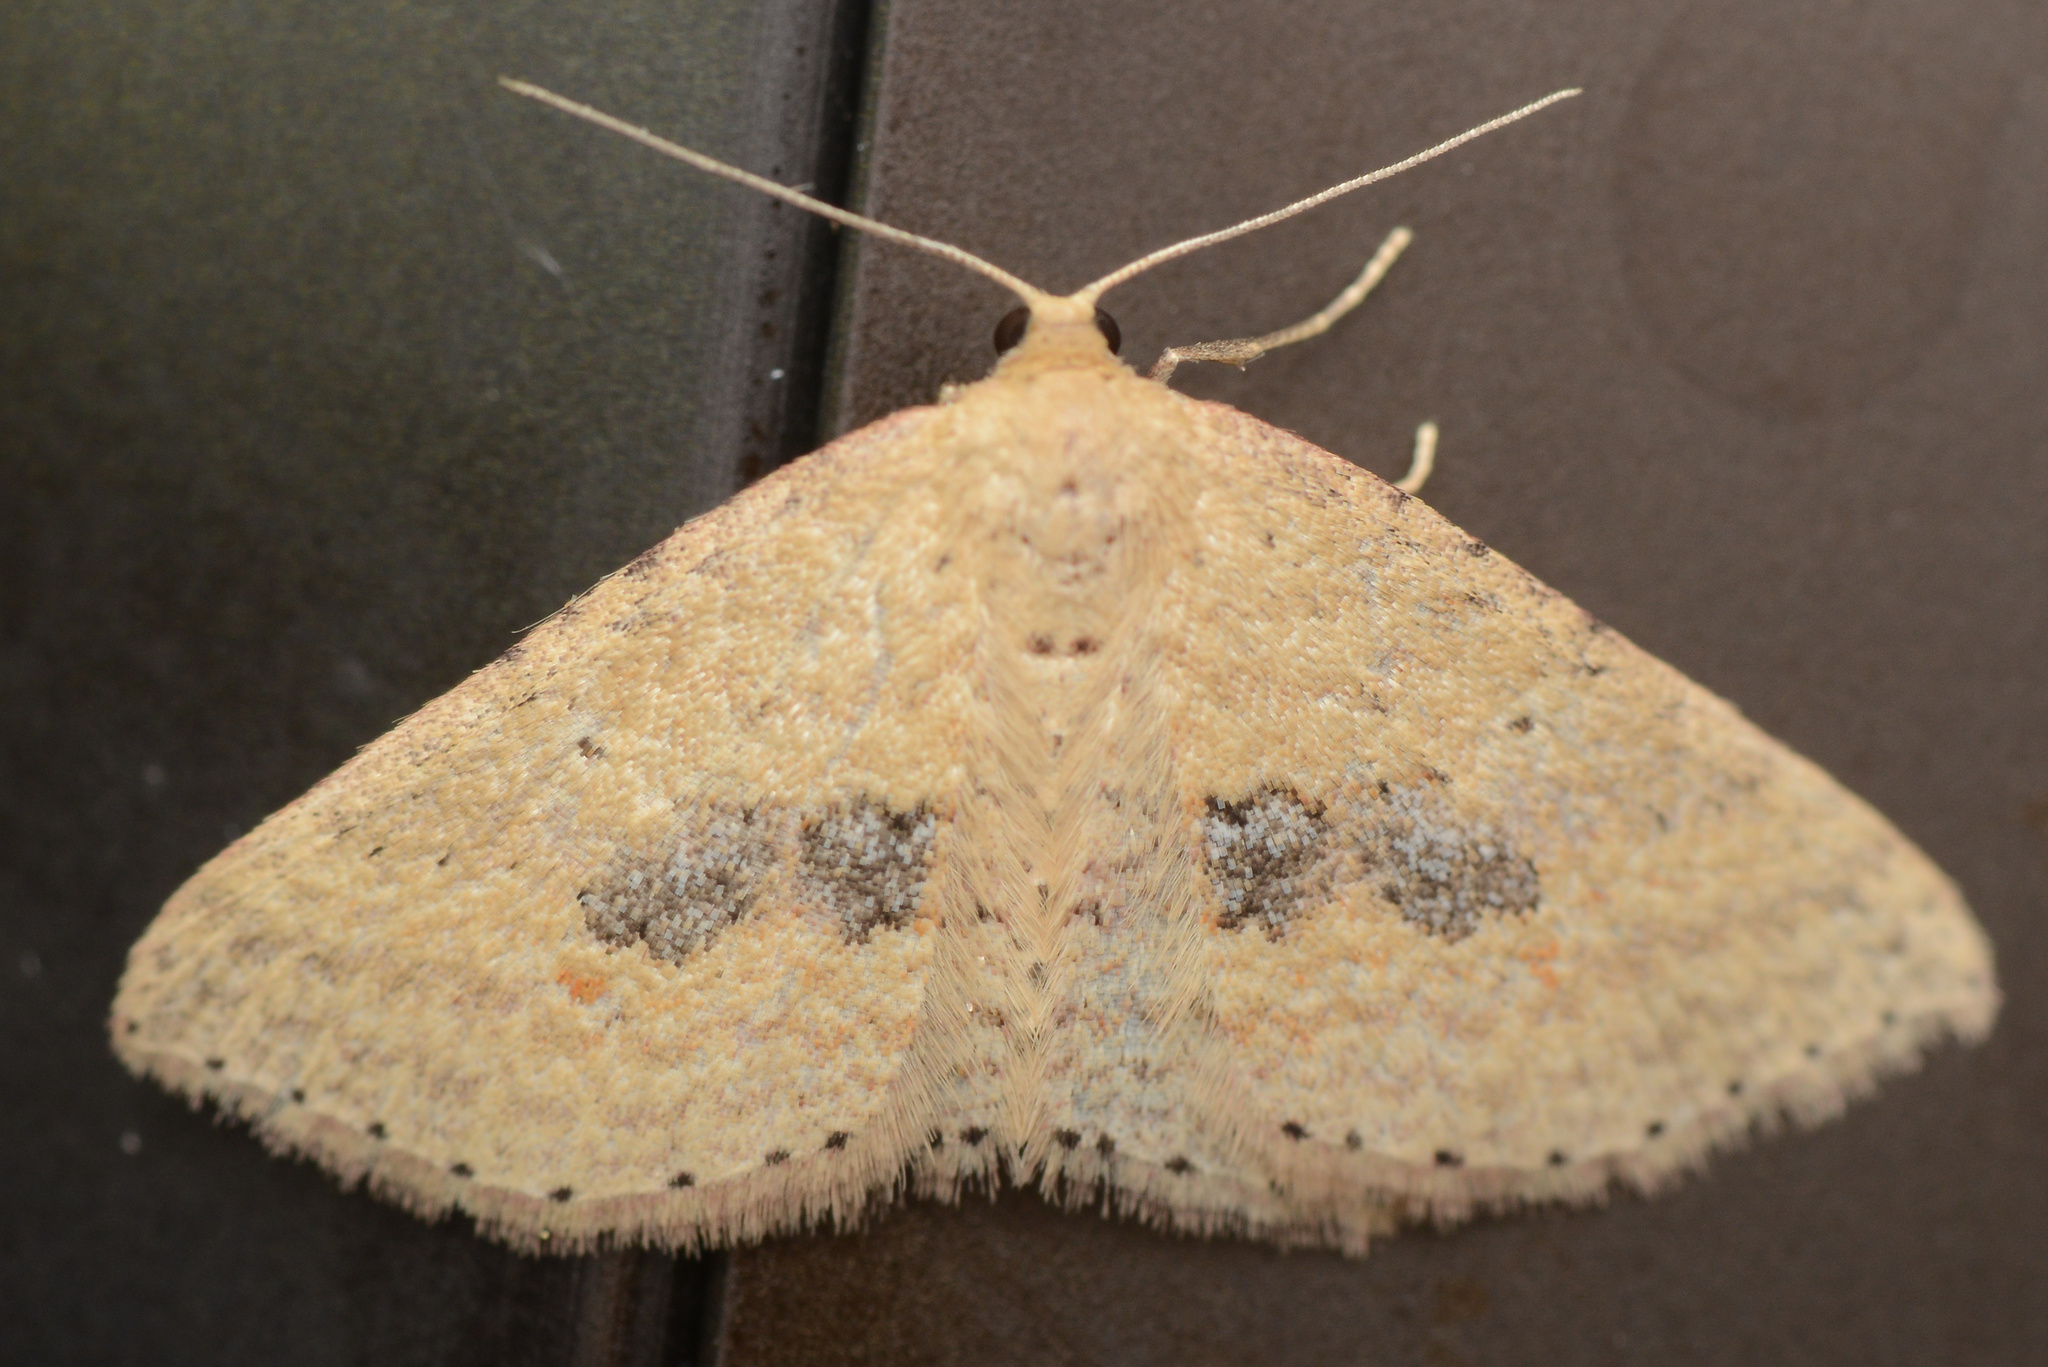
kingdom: Animalia
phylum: Arthropoda
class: Insecta
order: Lepidoptera
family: Geometridae
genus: Epicyme
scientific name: Epicyme rubropunctaria
